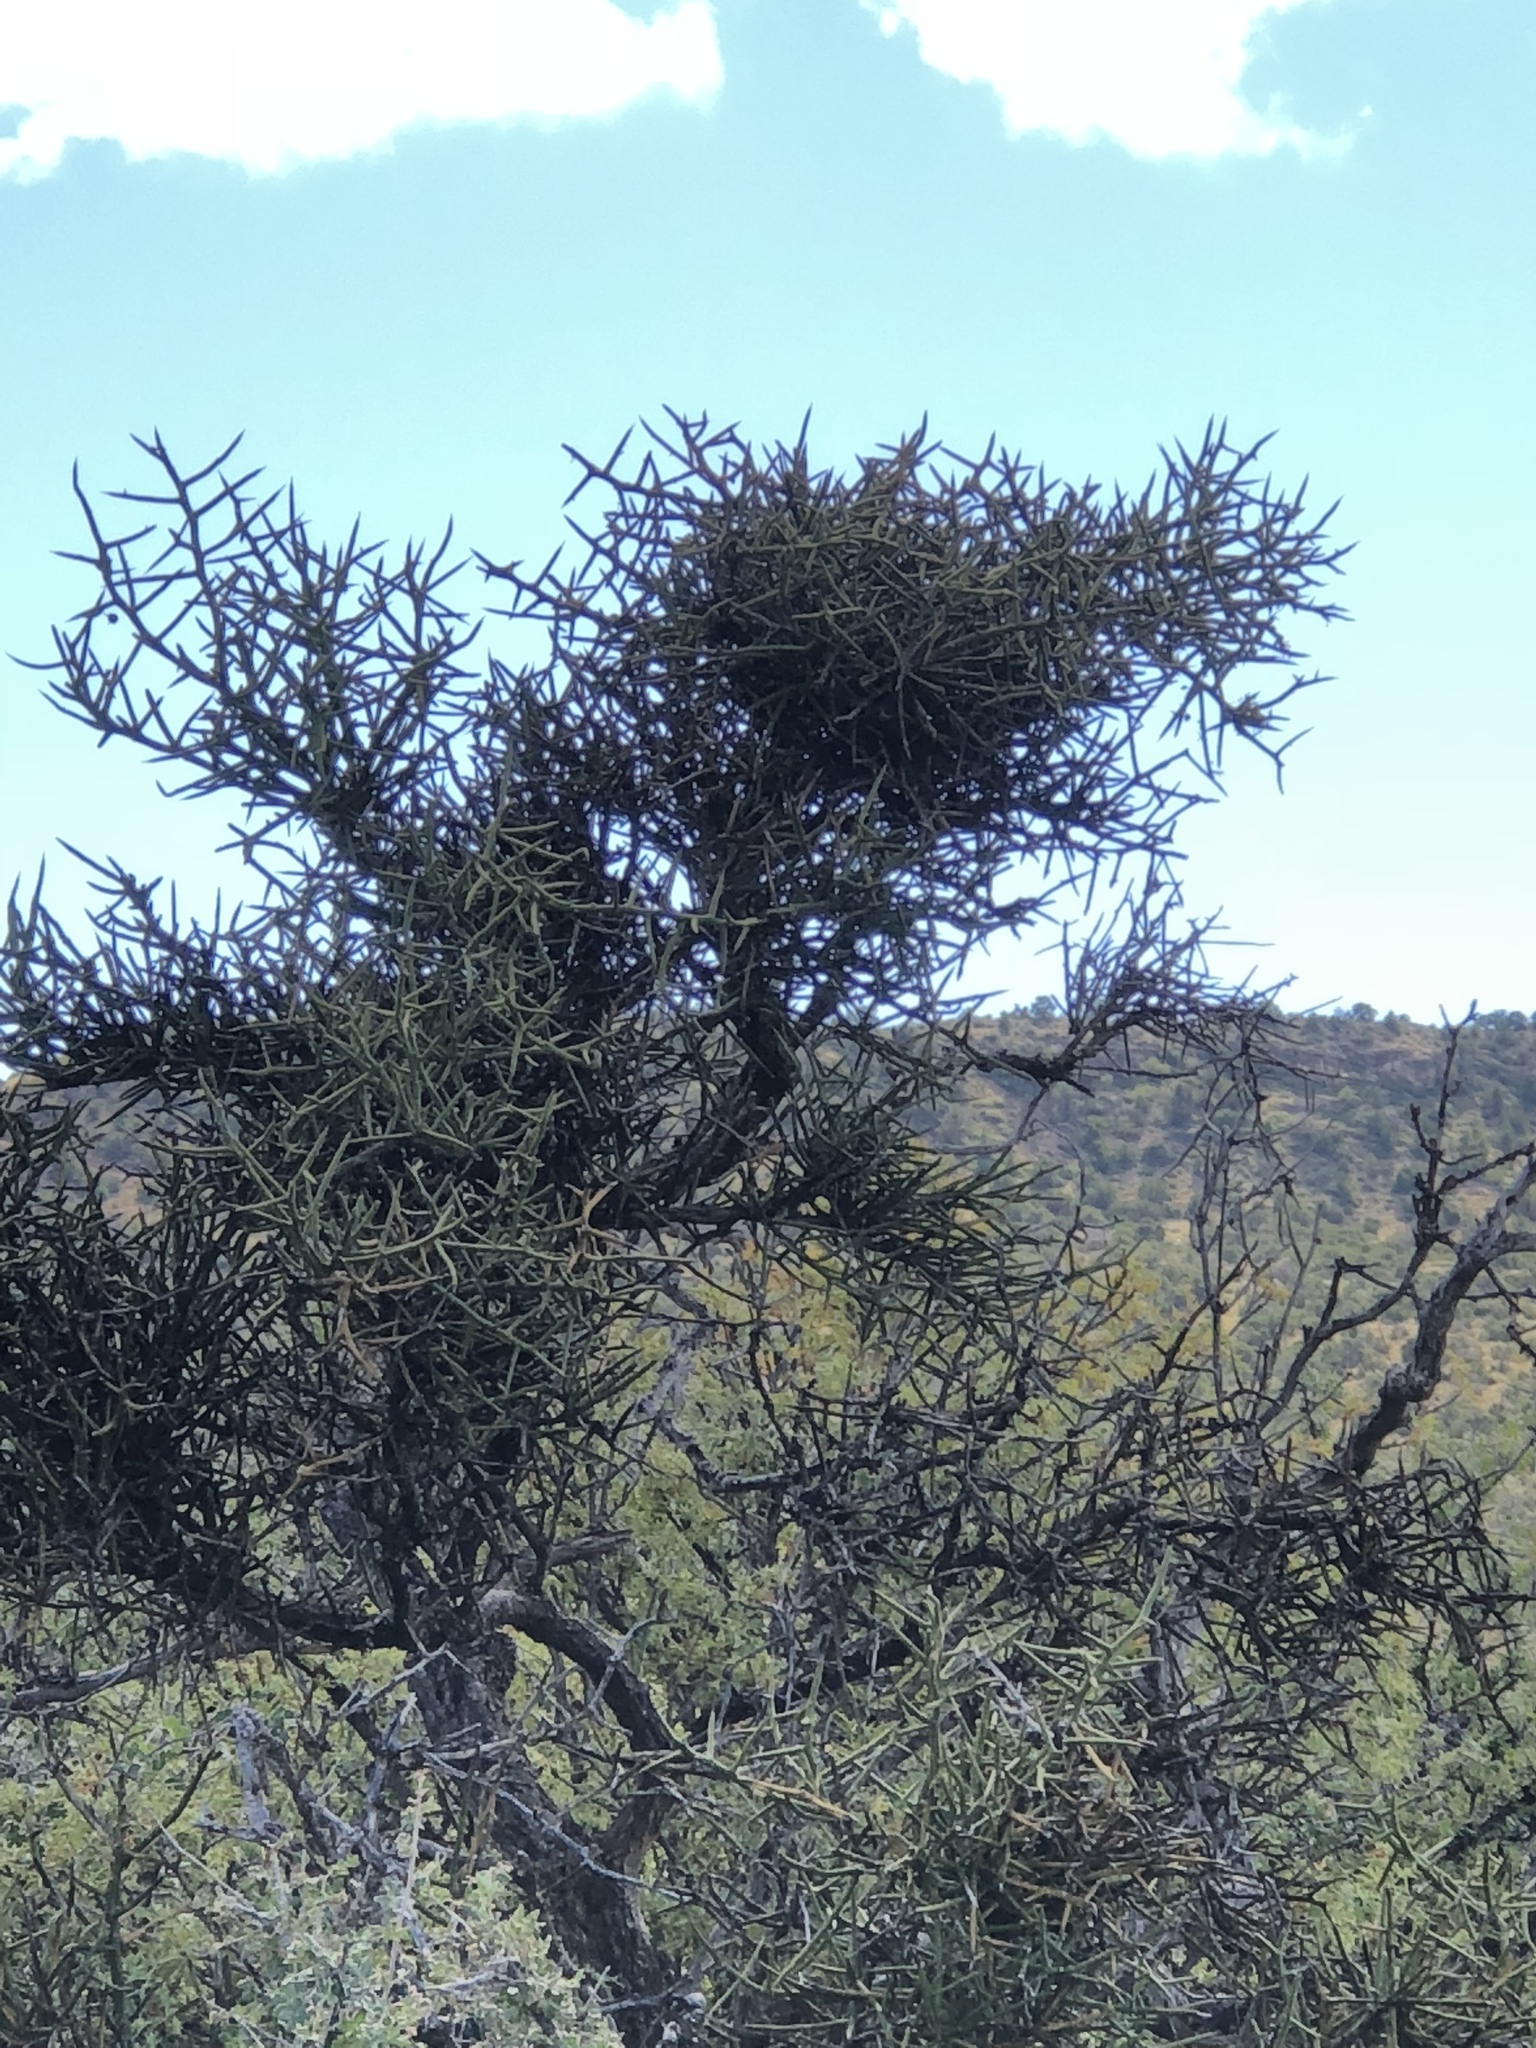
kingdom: Plantae
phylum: Tracheophyta
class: Magnoliopsida
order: Brassicales
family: Koeberliniaceae
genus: Koeberlinia
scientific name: Koeberlinia spinosa
